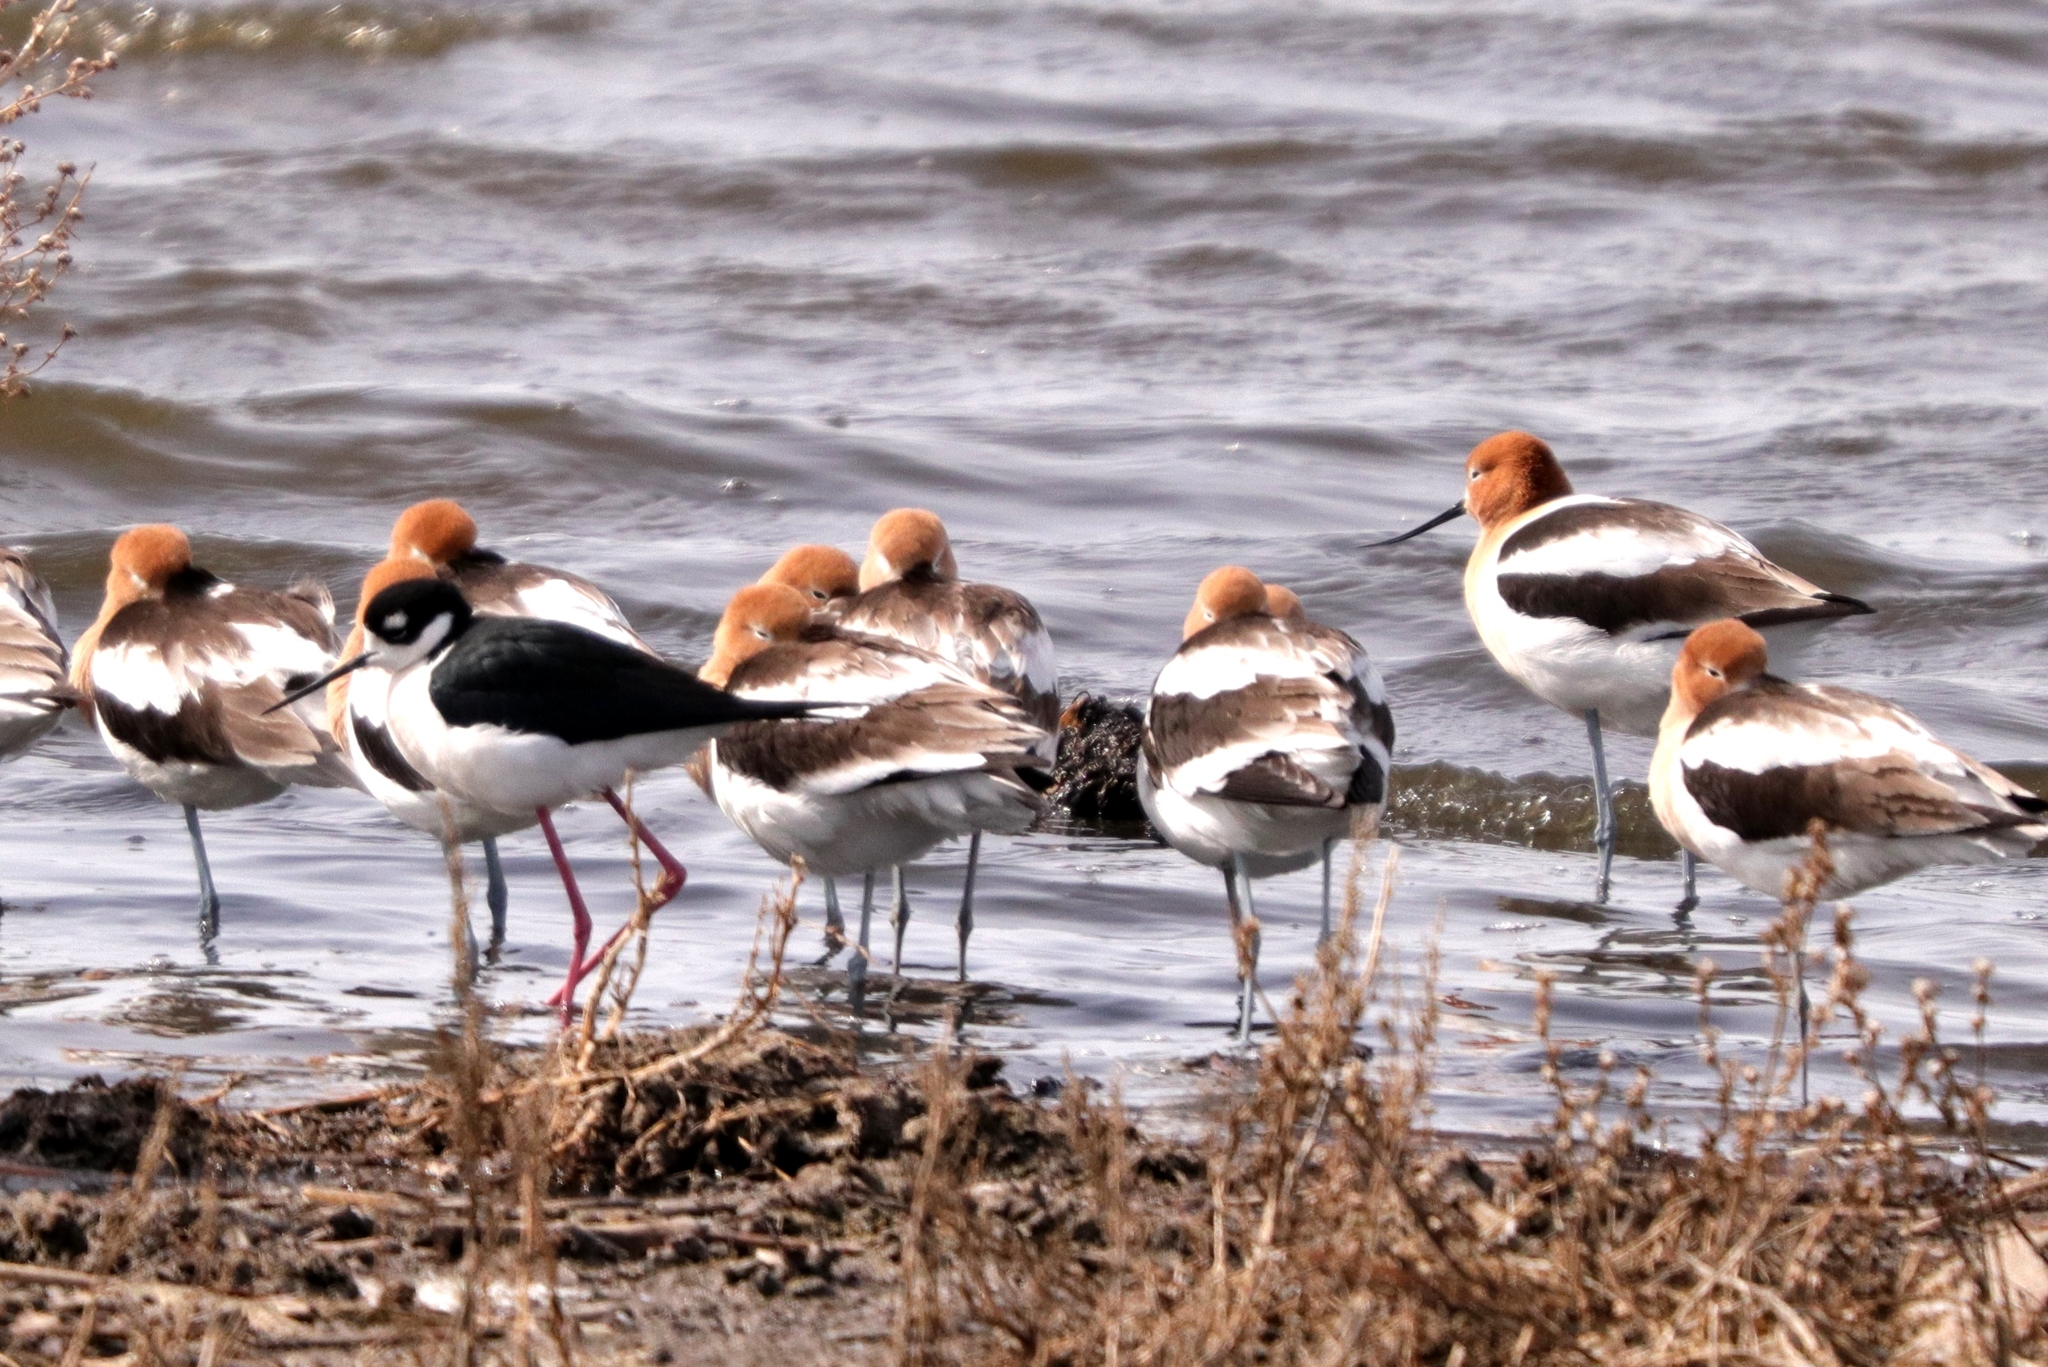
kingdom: Animalia
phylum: Chordata
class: Aves
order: Charadriiformes
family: Recurvirostridae
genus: Himantopus
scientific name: Himantopus mexicanus
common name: Black-necked stilt
